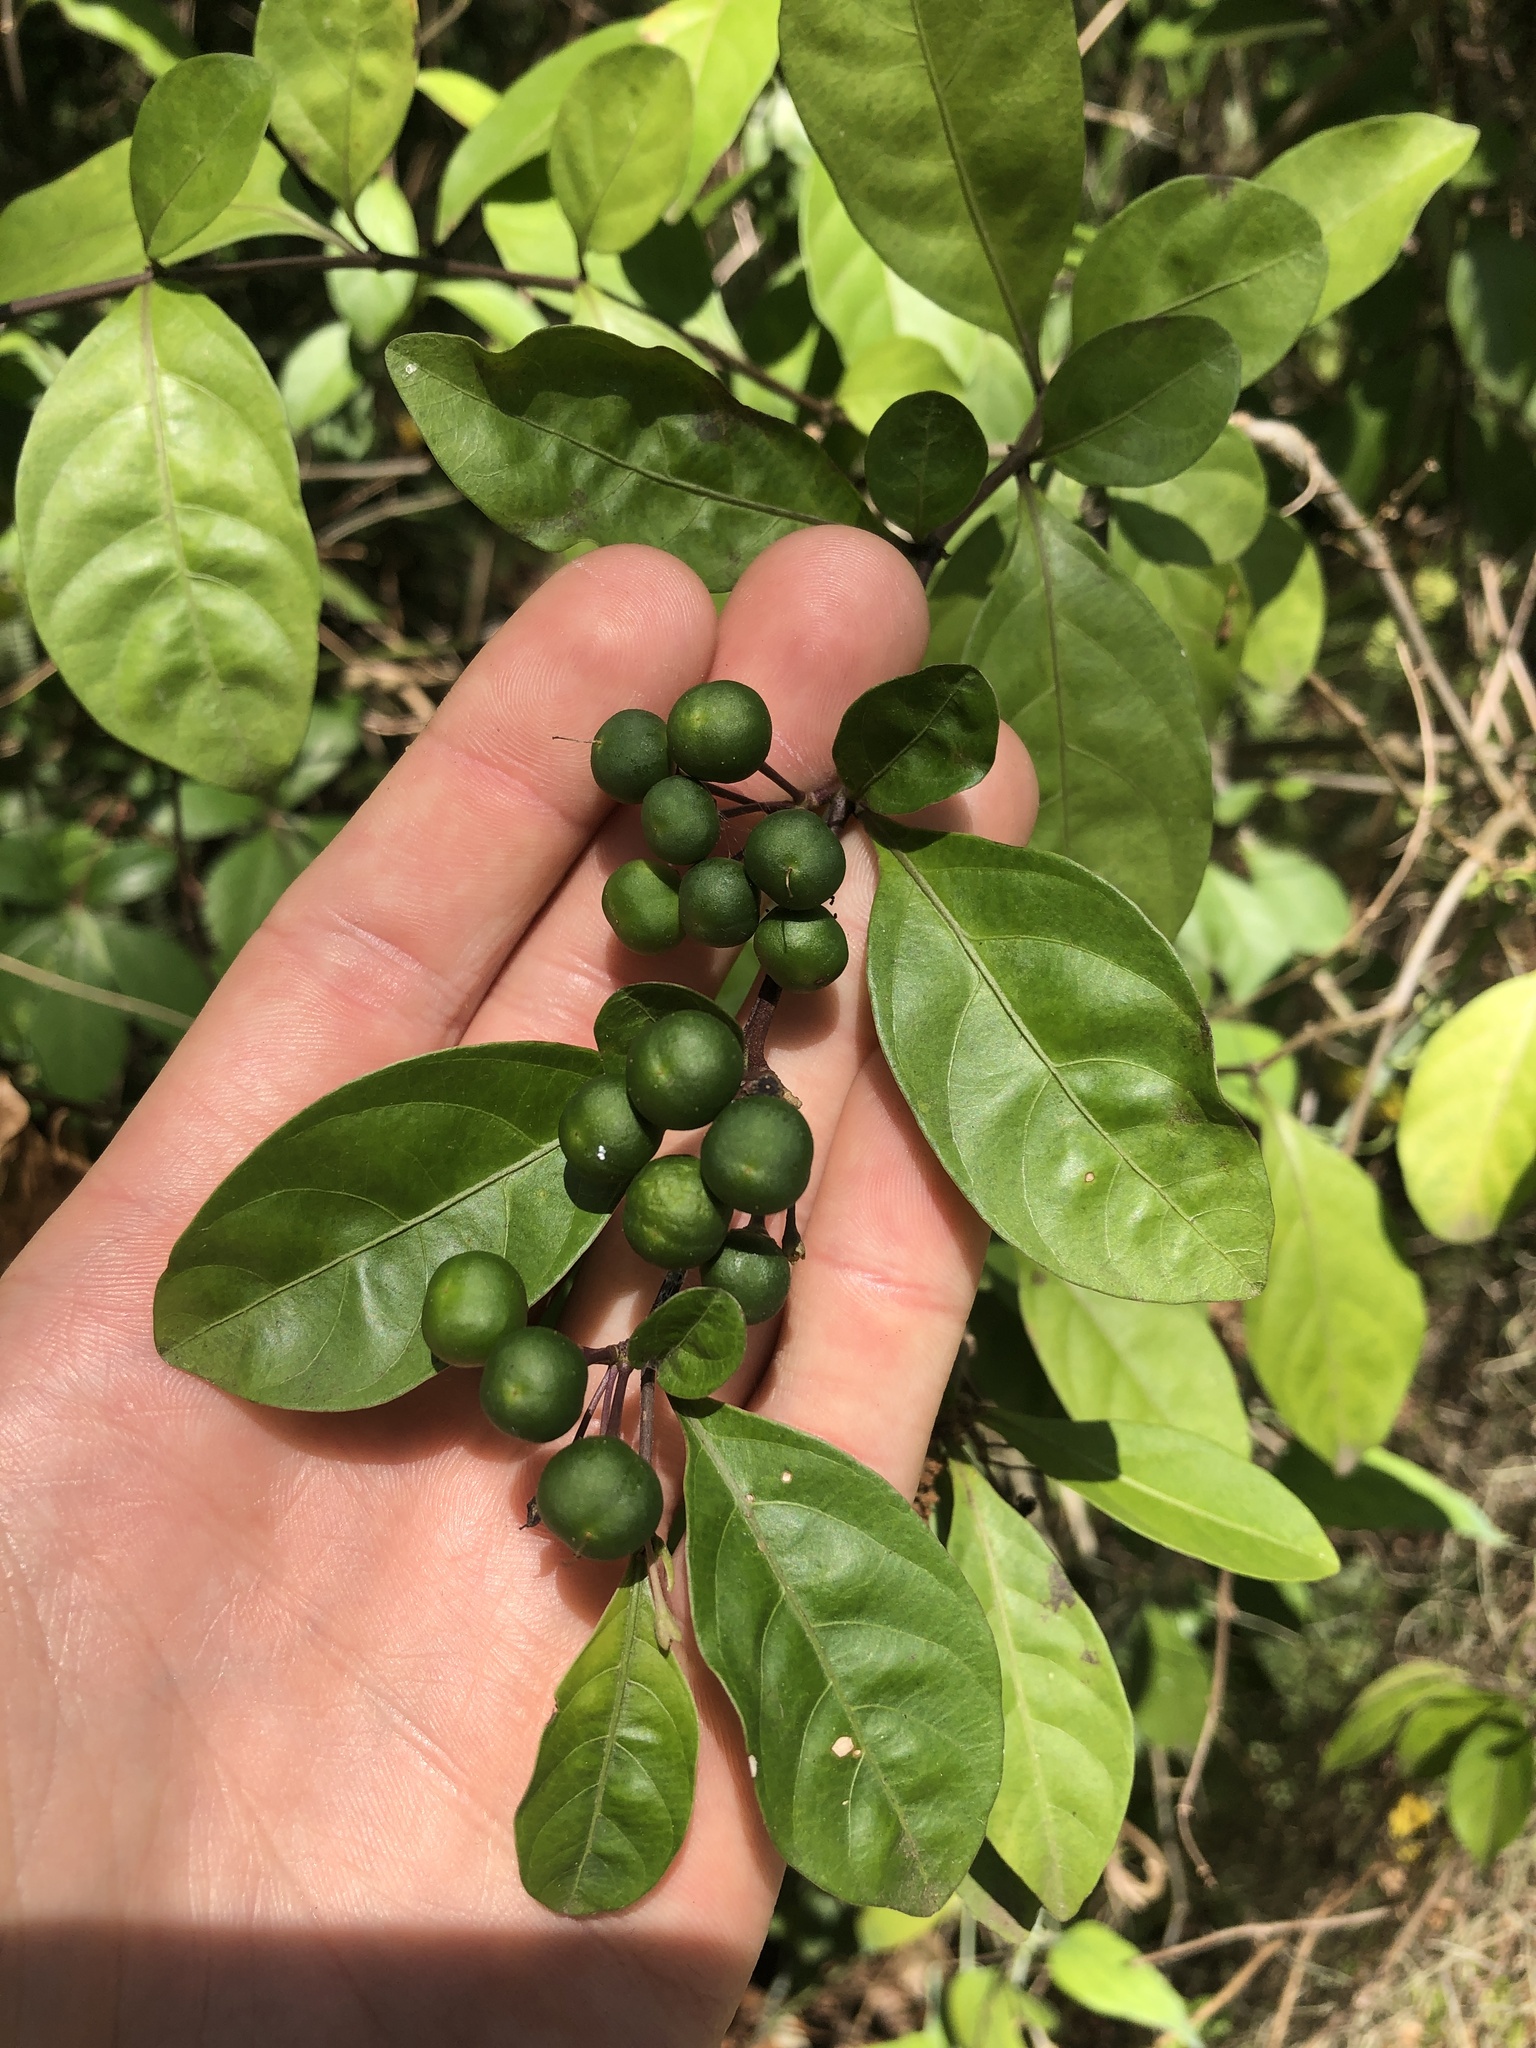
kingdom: Plantae
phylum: Tracheophyta
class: Magnoliopsida
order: Solanales
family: Solanaceae
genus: Solanum
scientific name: Solanum diphyllum
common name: Twoleaf nightshade
